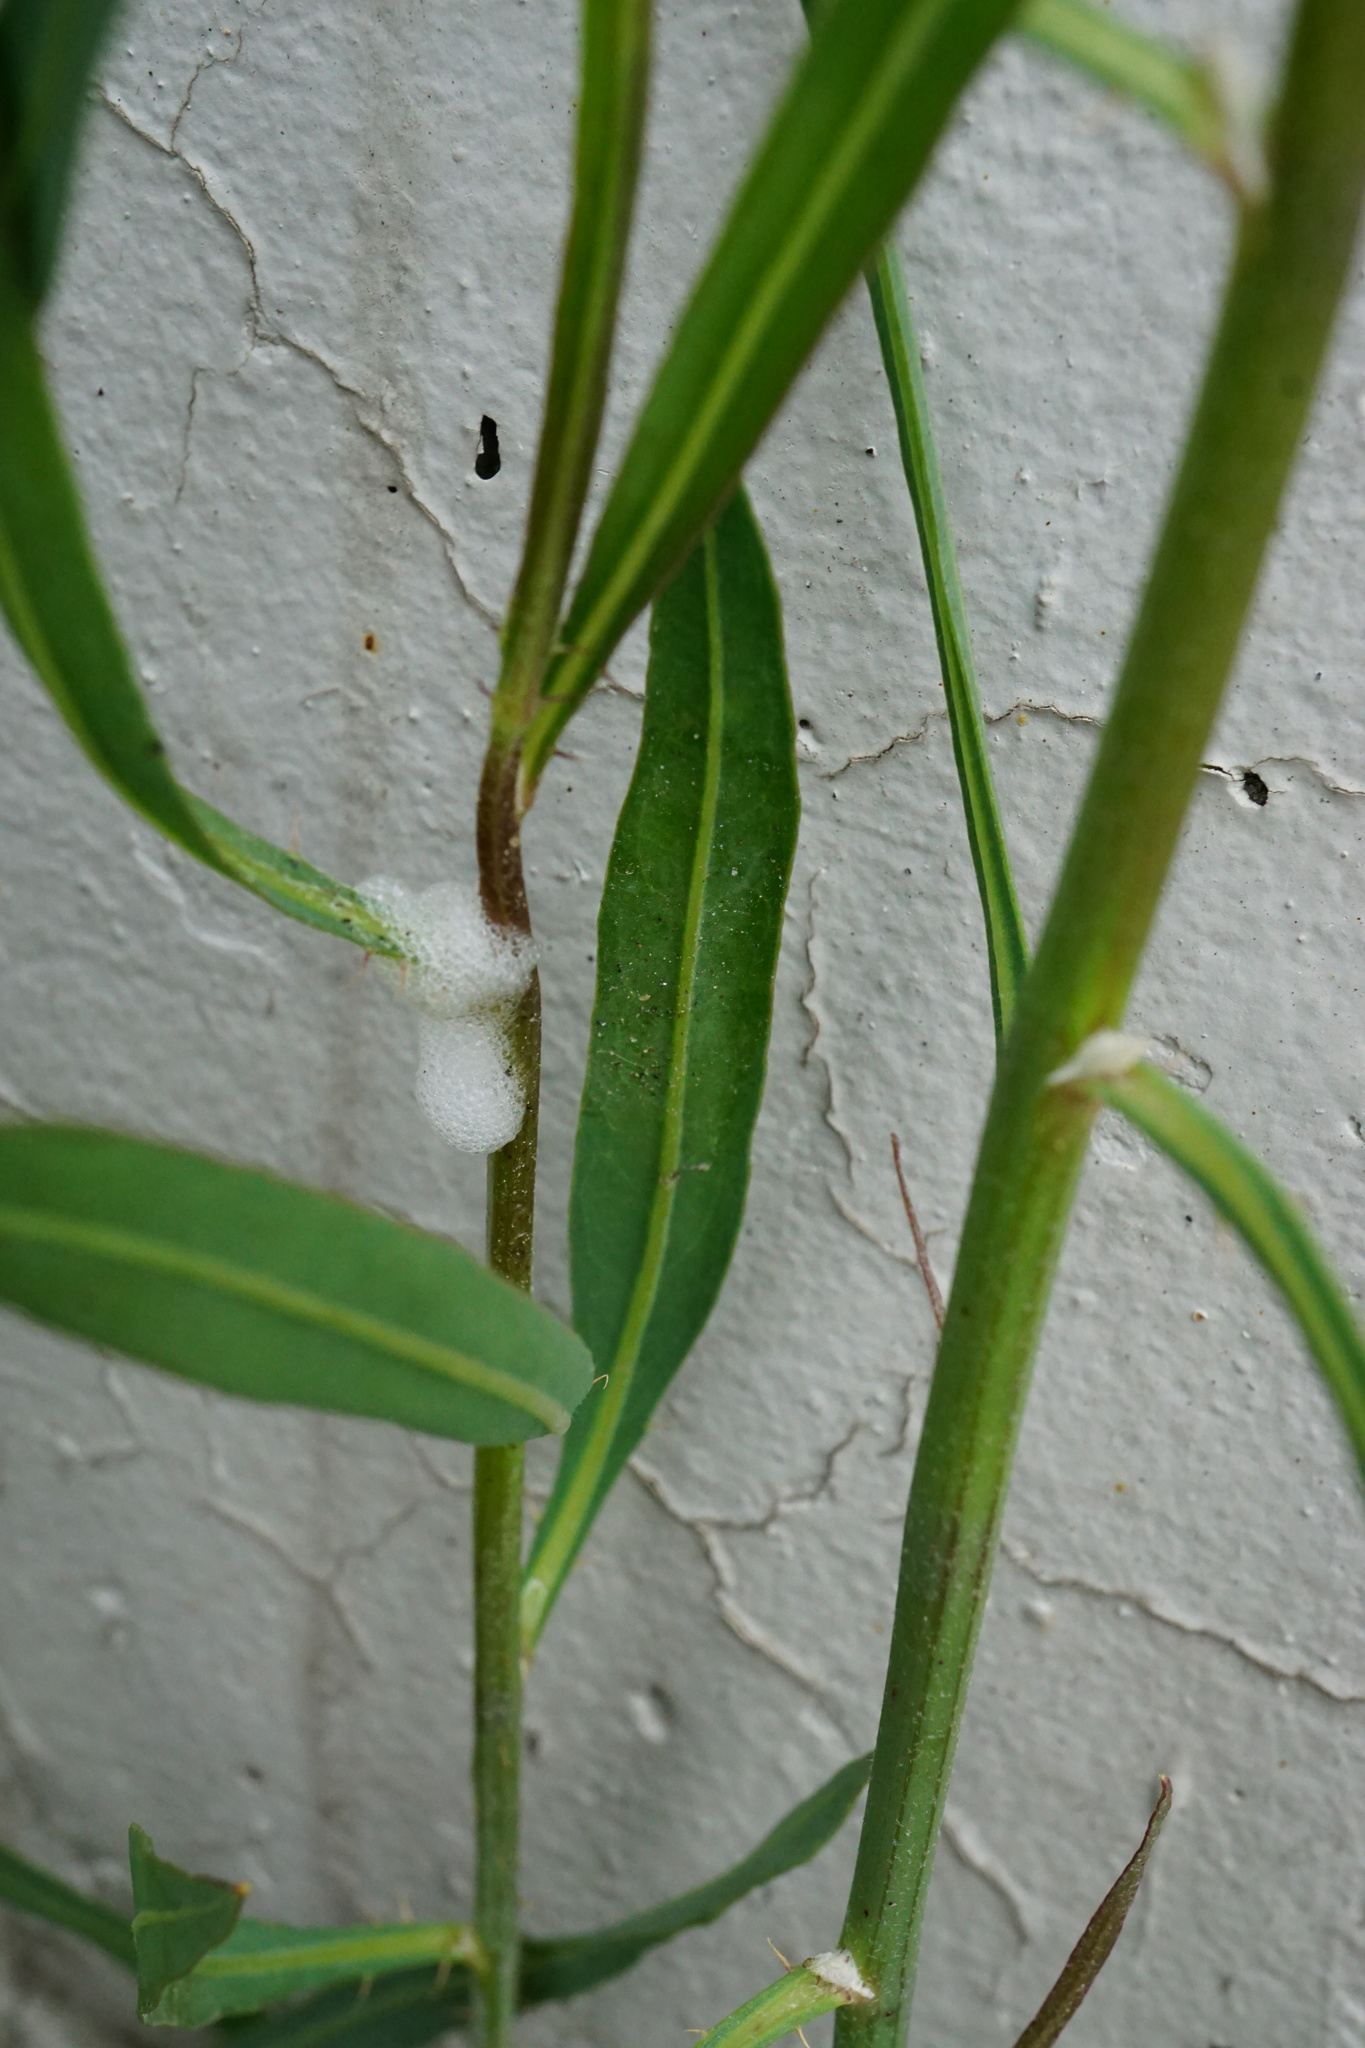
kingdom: Plantae
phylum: Tracheophyta
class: Magnoliopsida
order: Asterales
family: Asteraceae
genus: Chondrilla
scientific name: Chondrilla juncea
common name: Skeleton weed
